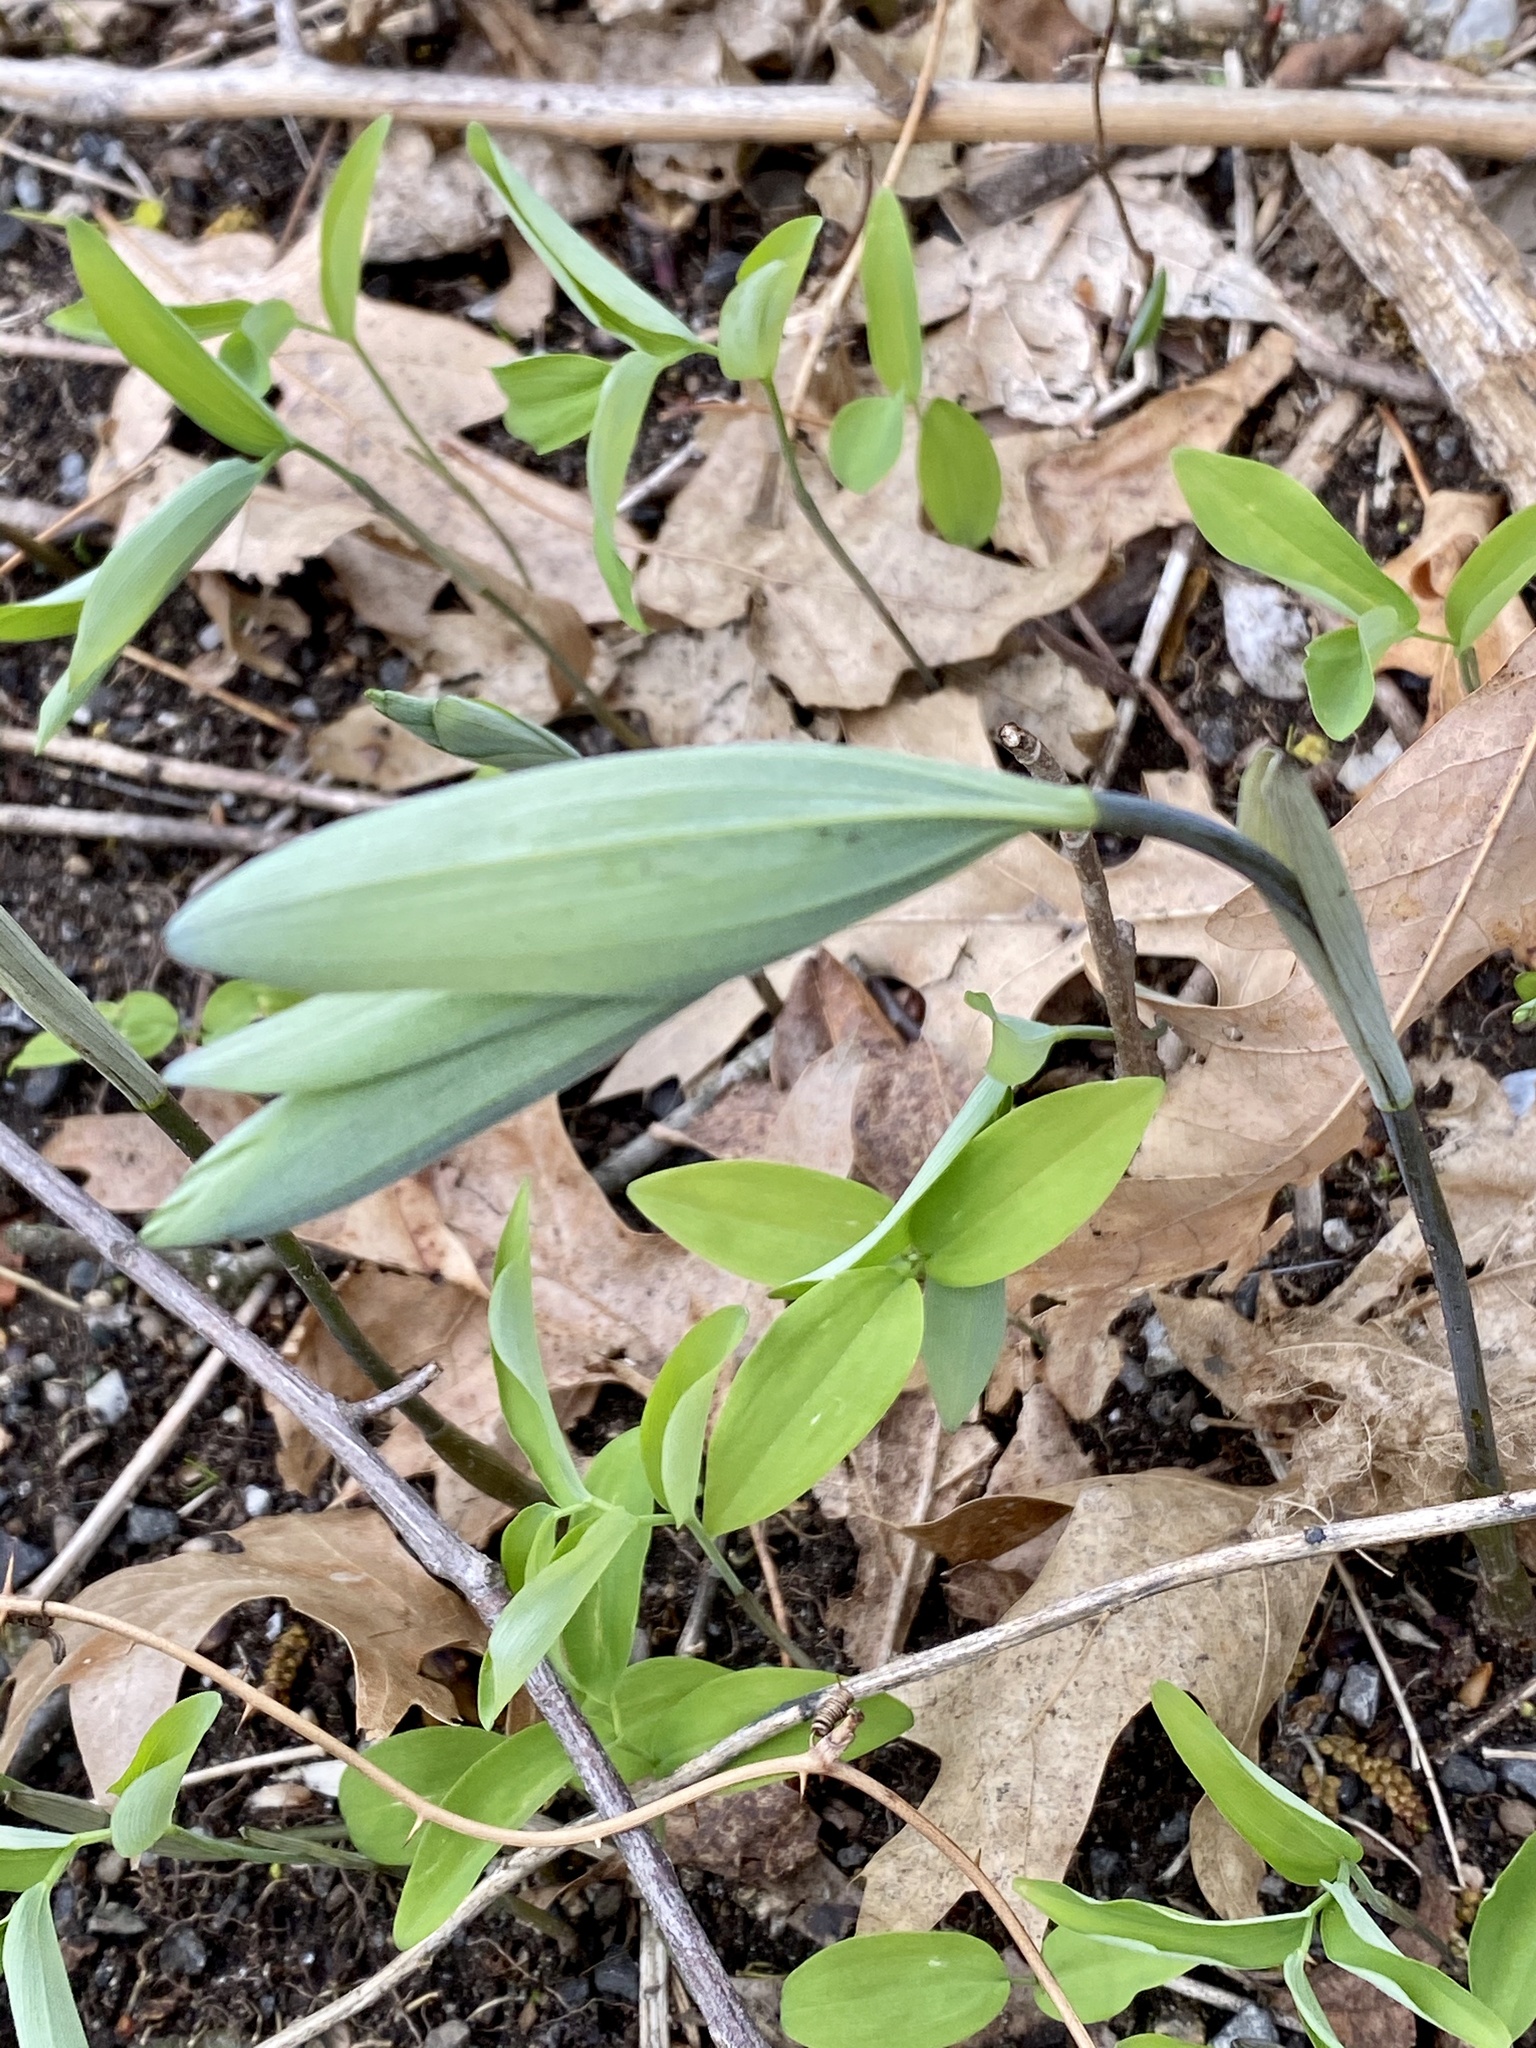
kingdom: Plantae
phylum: Tracheophyta
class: Liliopsida
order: Asparagales
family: Asparagaceae
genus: Polygonatum
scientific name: Polygonatum pubescens
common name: Downy solomon's seal
